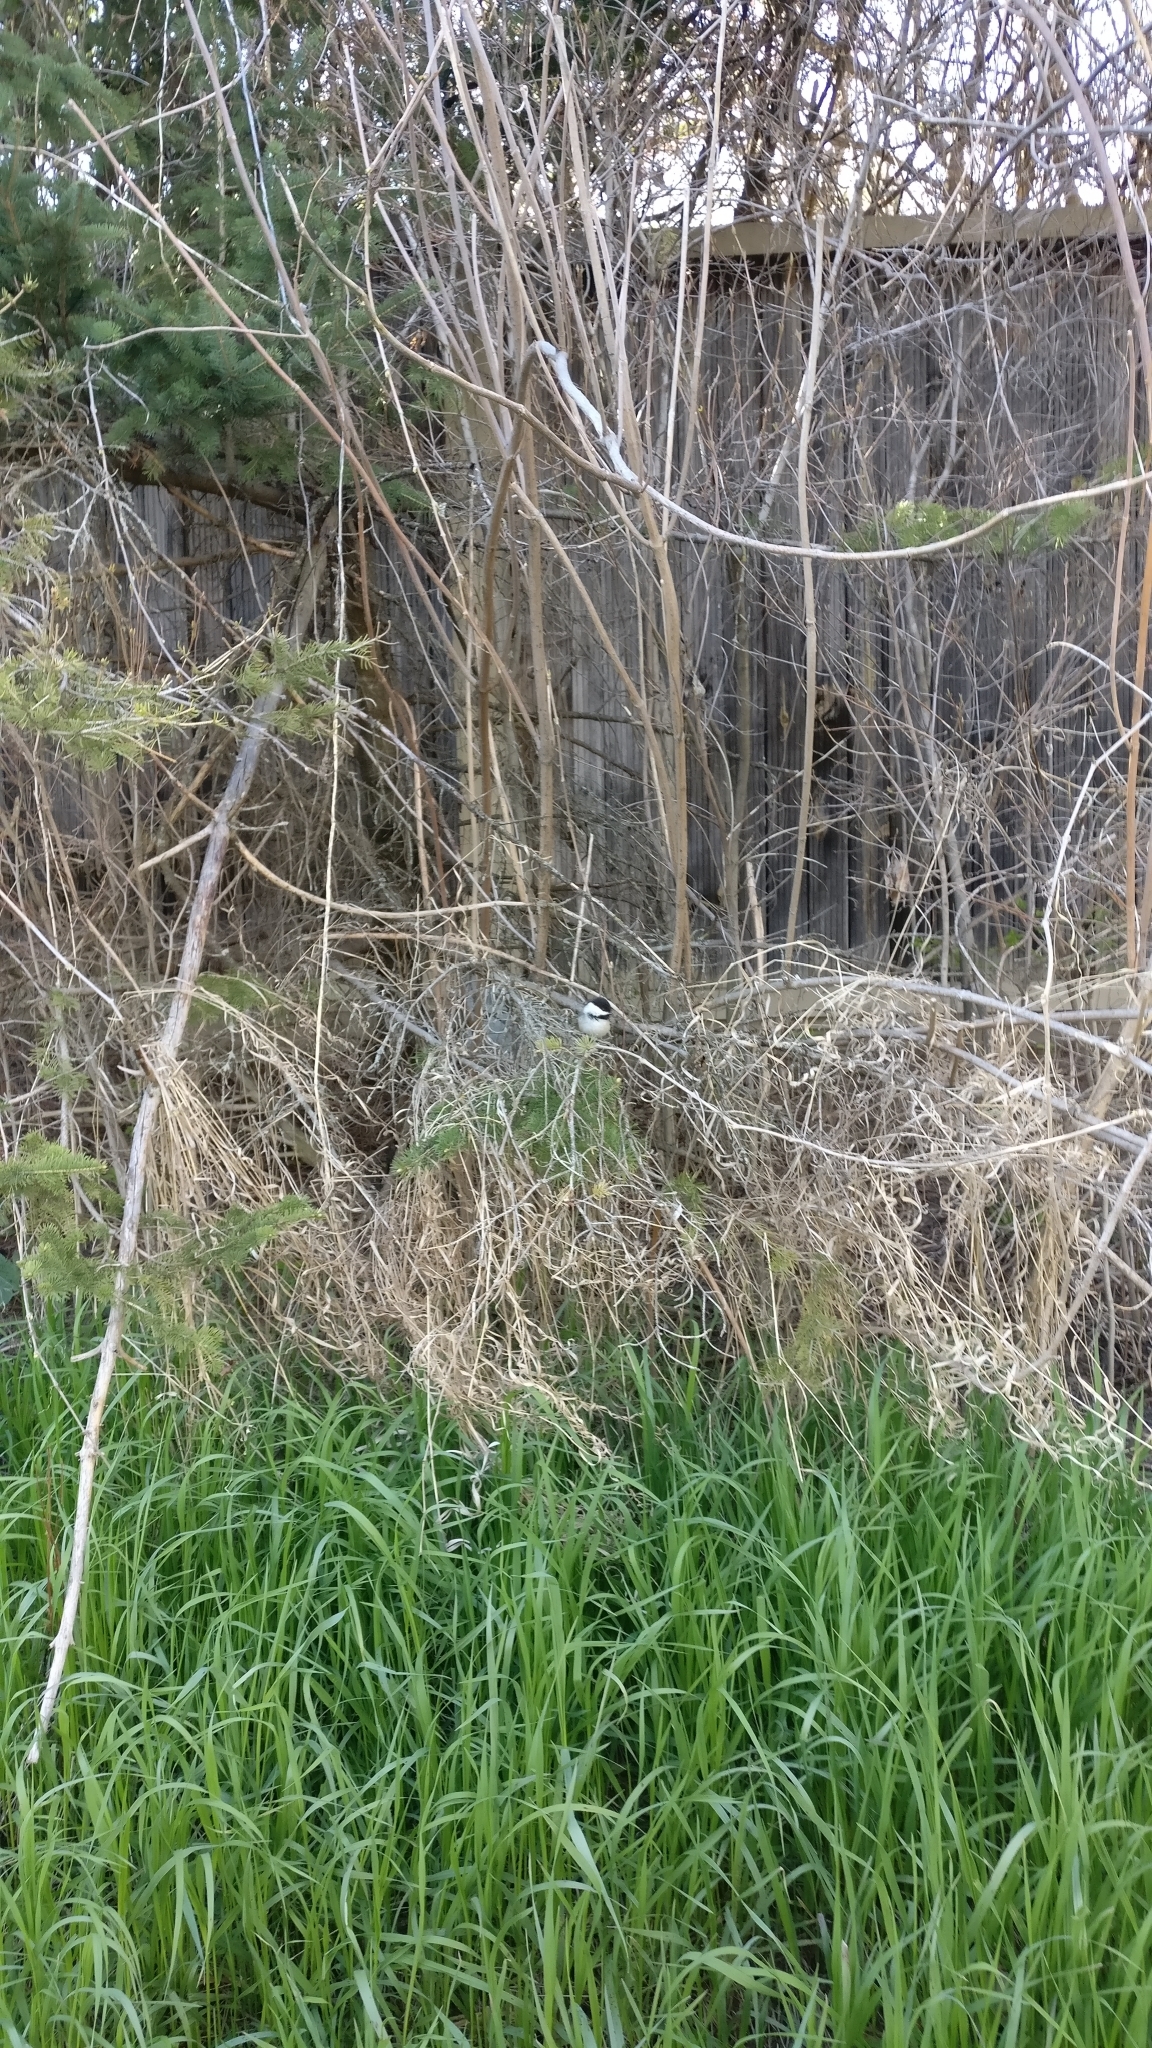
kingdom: Animalia
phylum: Chordata
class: Aves
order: Passeriformes
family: Paridae
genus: Poecile
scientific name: Poecile atricapillus
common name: Black-capped chickadee
